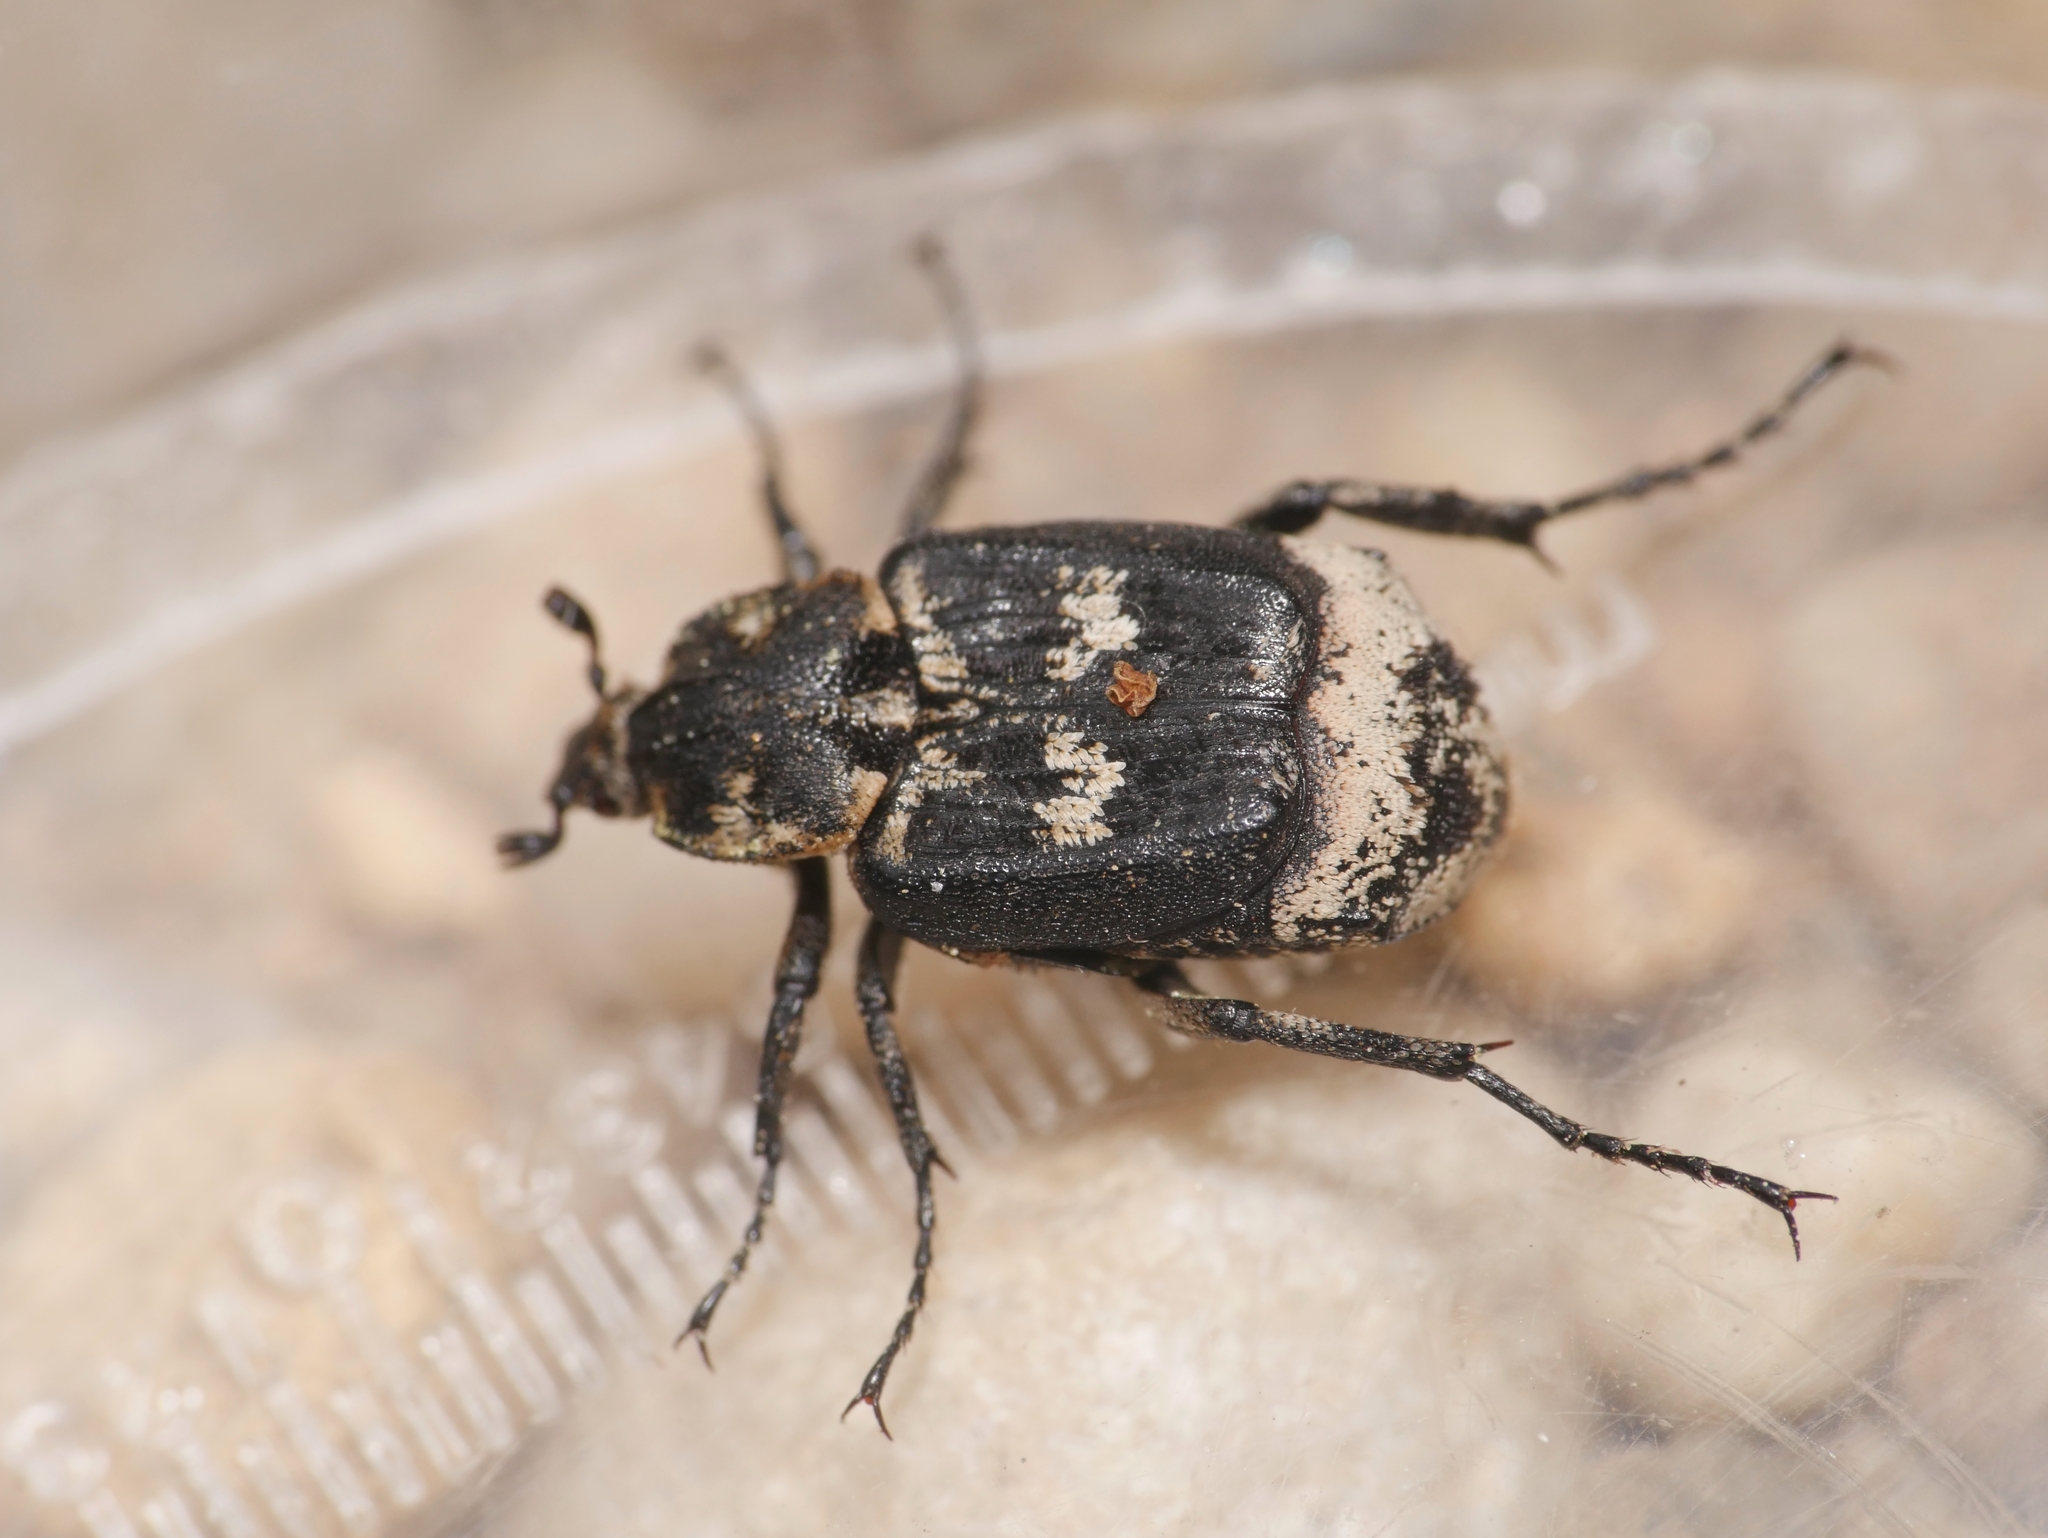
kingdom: Animalia
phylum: Arthropoda
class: Insecta
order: Coleoptera
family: Scarabaeidae
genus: Valgus
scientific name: Valgus hemipterus
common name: Bug flower chafer
